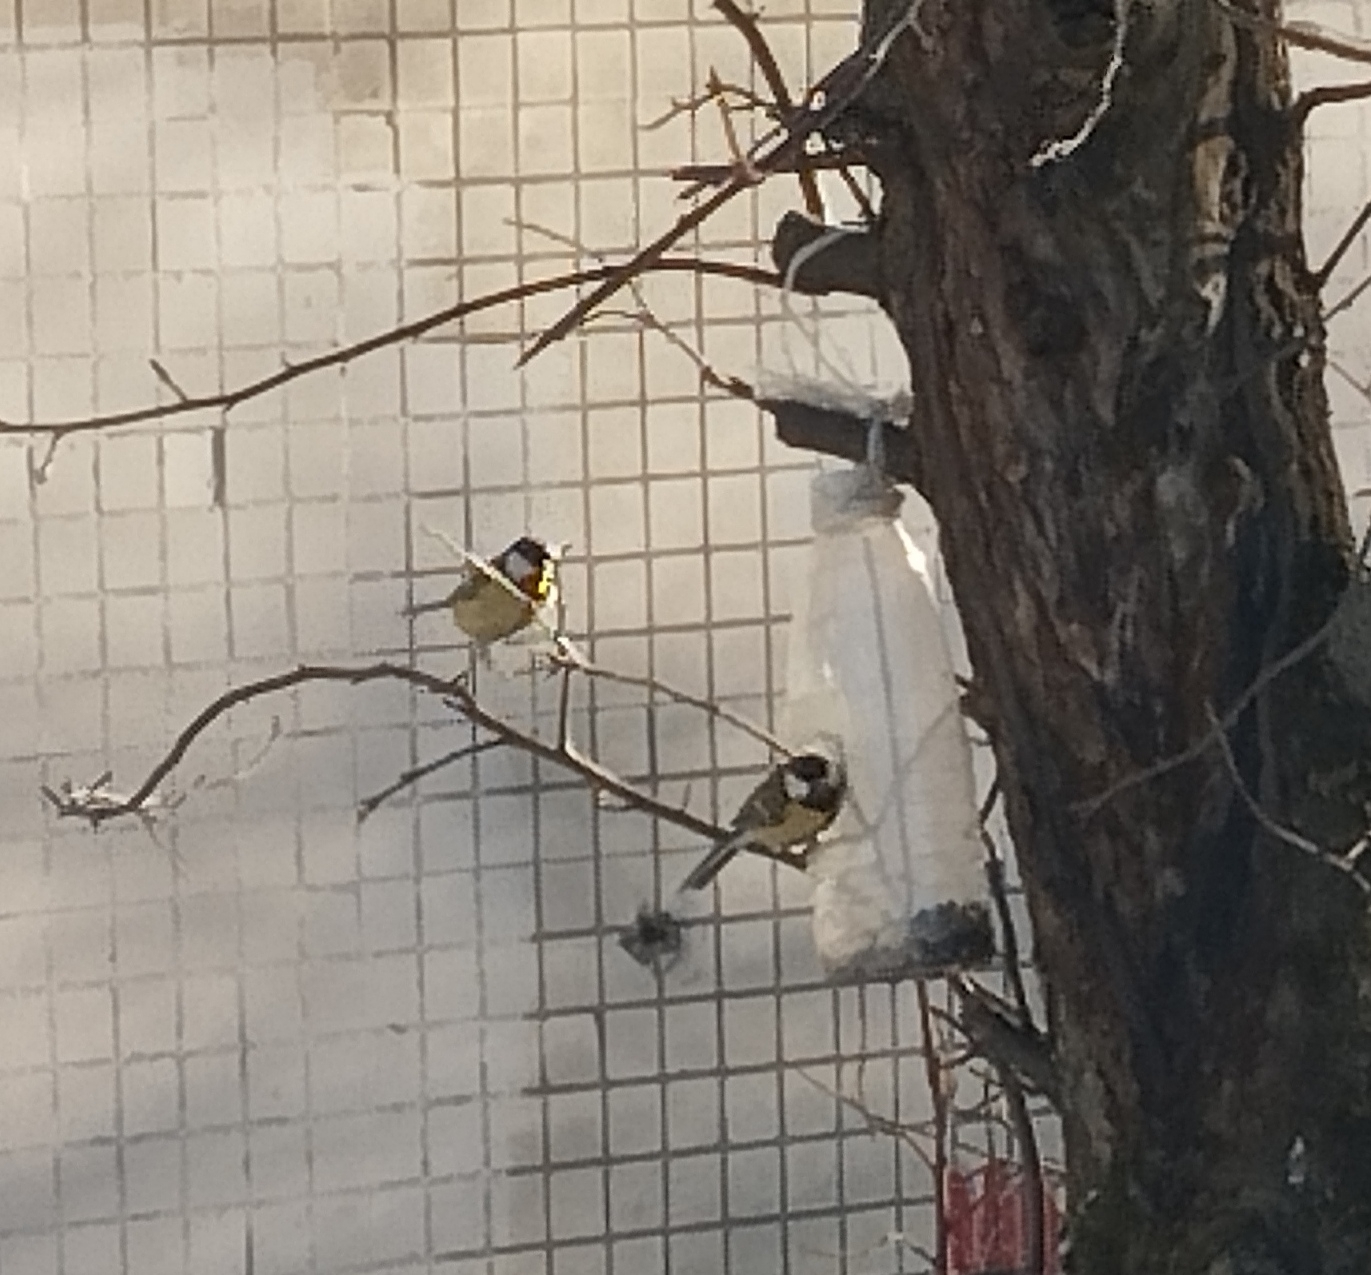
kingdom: Animalia
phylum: Chordata
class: Aves
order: Passeriformes
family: Paridae
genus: Parus
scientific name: Parus major
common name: Great tit
